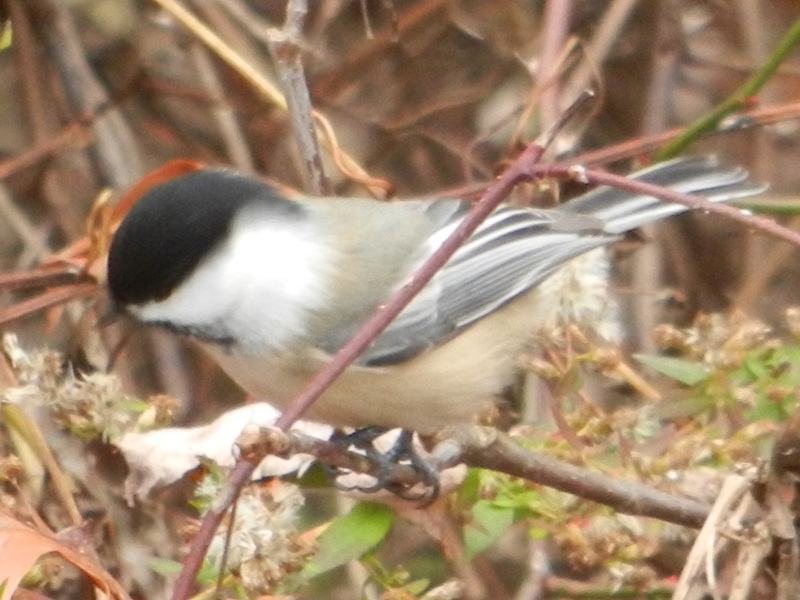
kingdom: Animalia
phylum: Chordata
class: Aves
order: Passeriformes
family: Paridae
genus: Poecile
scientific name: Poecile atricapillus
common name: Black-capped chickadee
